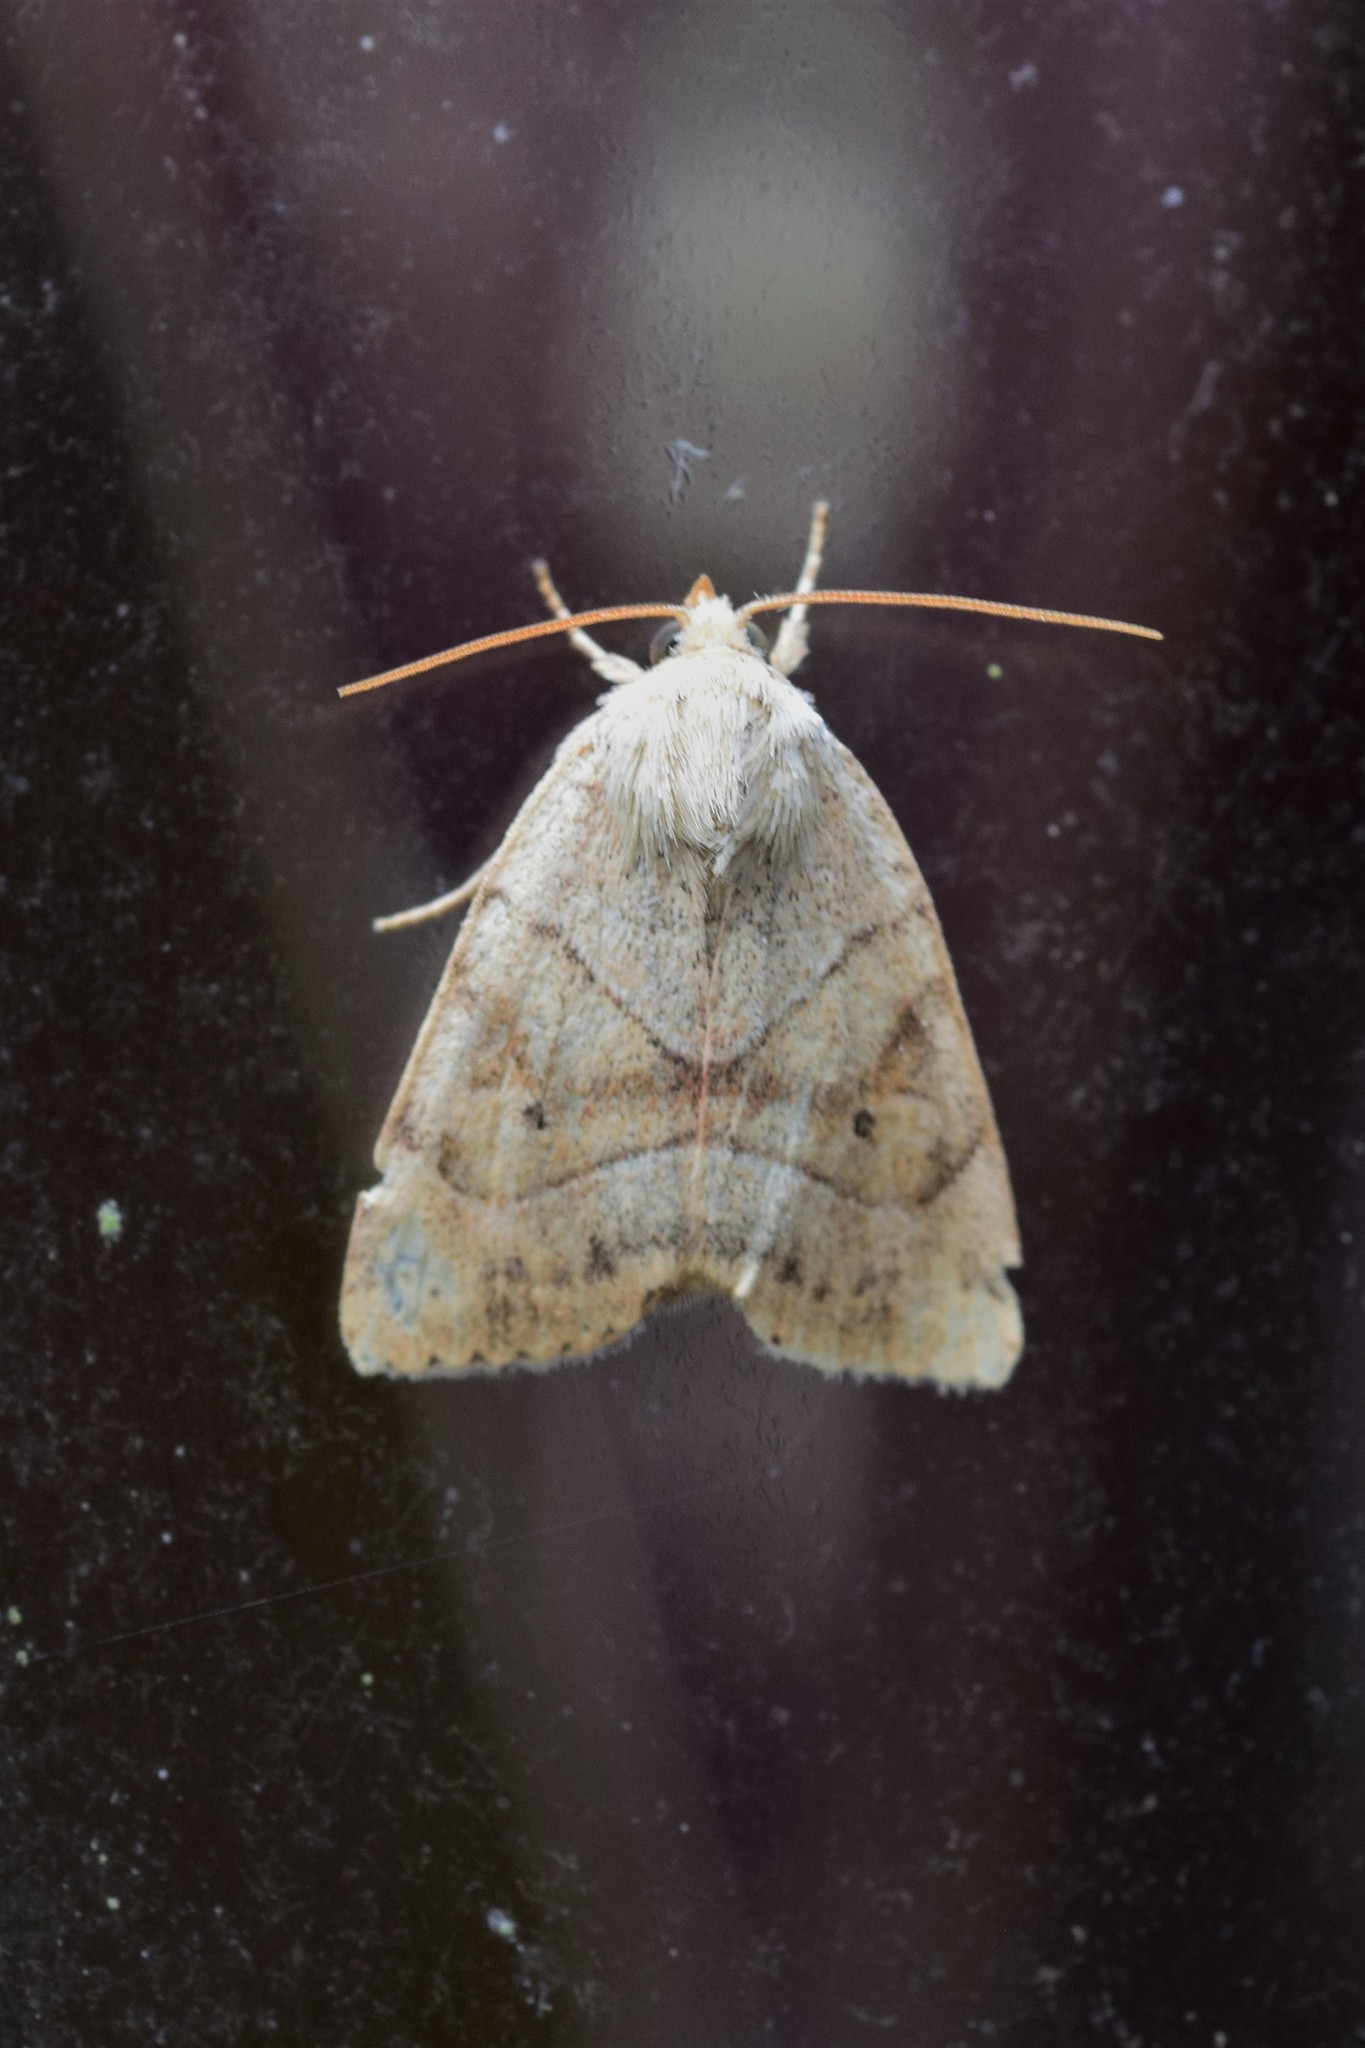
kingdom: Animalia
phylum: Arthropoda
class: Insecta
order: Lepidoptera
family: Noctuidae
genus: Cosmia
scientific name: Cosmia trapezina
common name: Dun-bar
